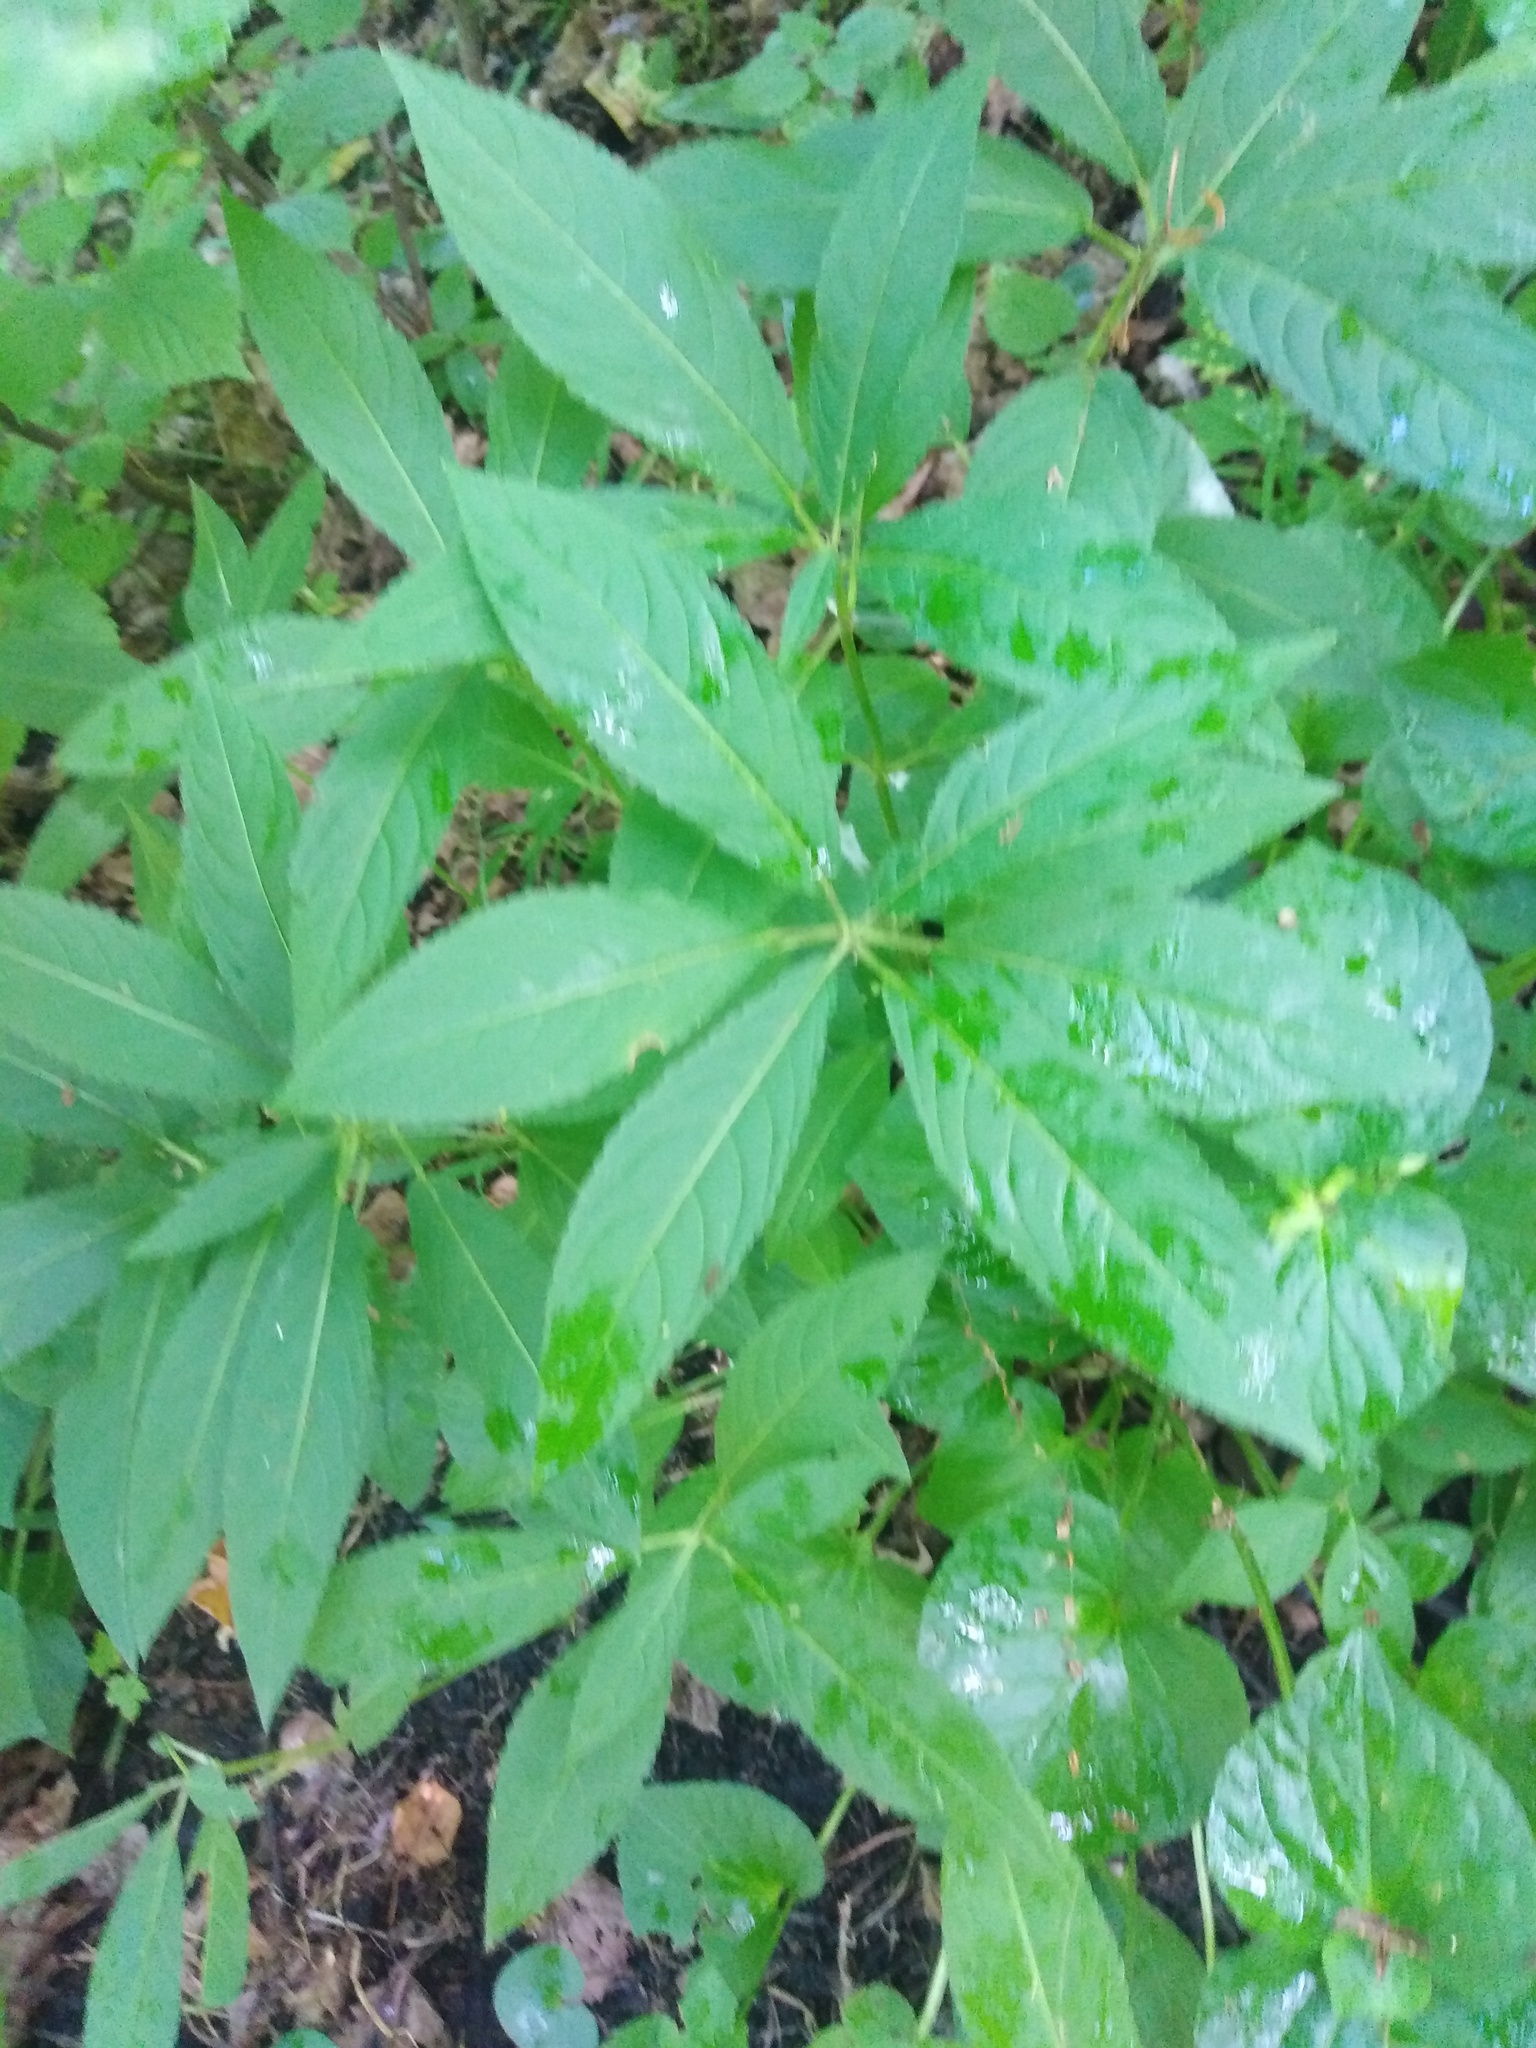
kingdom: Plantae
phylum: Tracheophyta
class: Magnoliopsida
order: Malpighiales
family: Euphorbiaceae
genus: Mercurialis
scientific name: Mercurialis perennis
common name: Dog mercury
